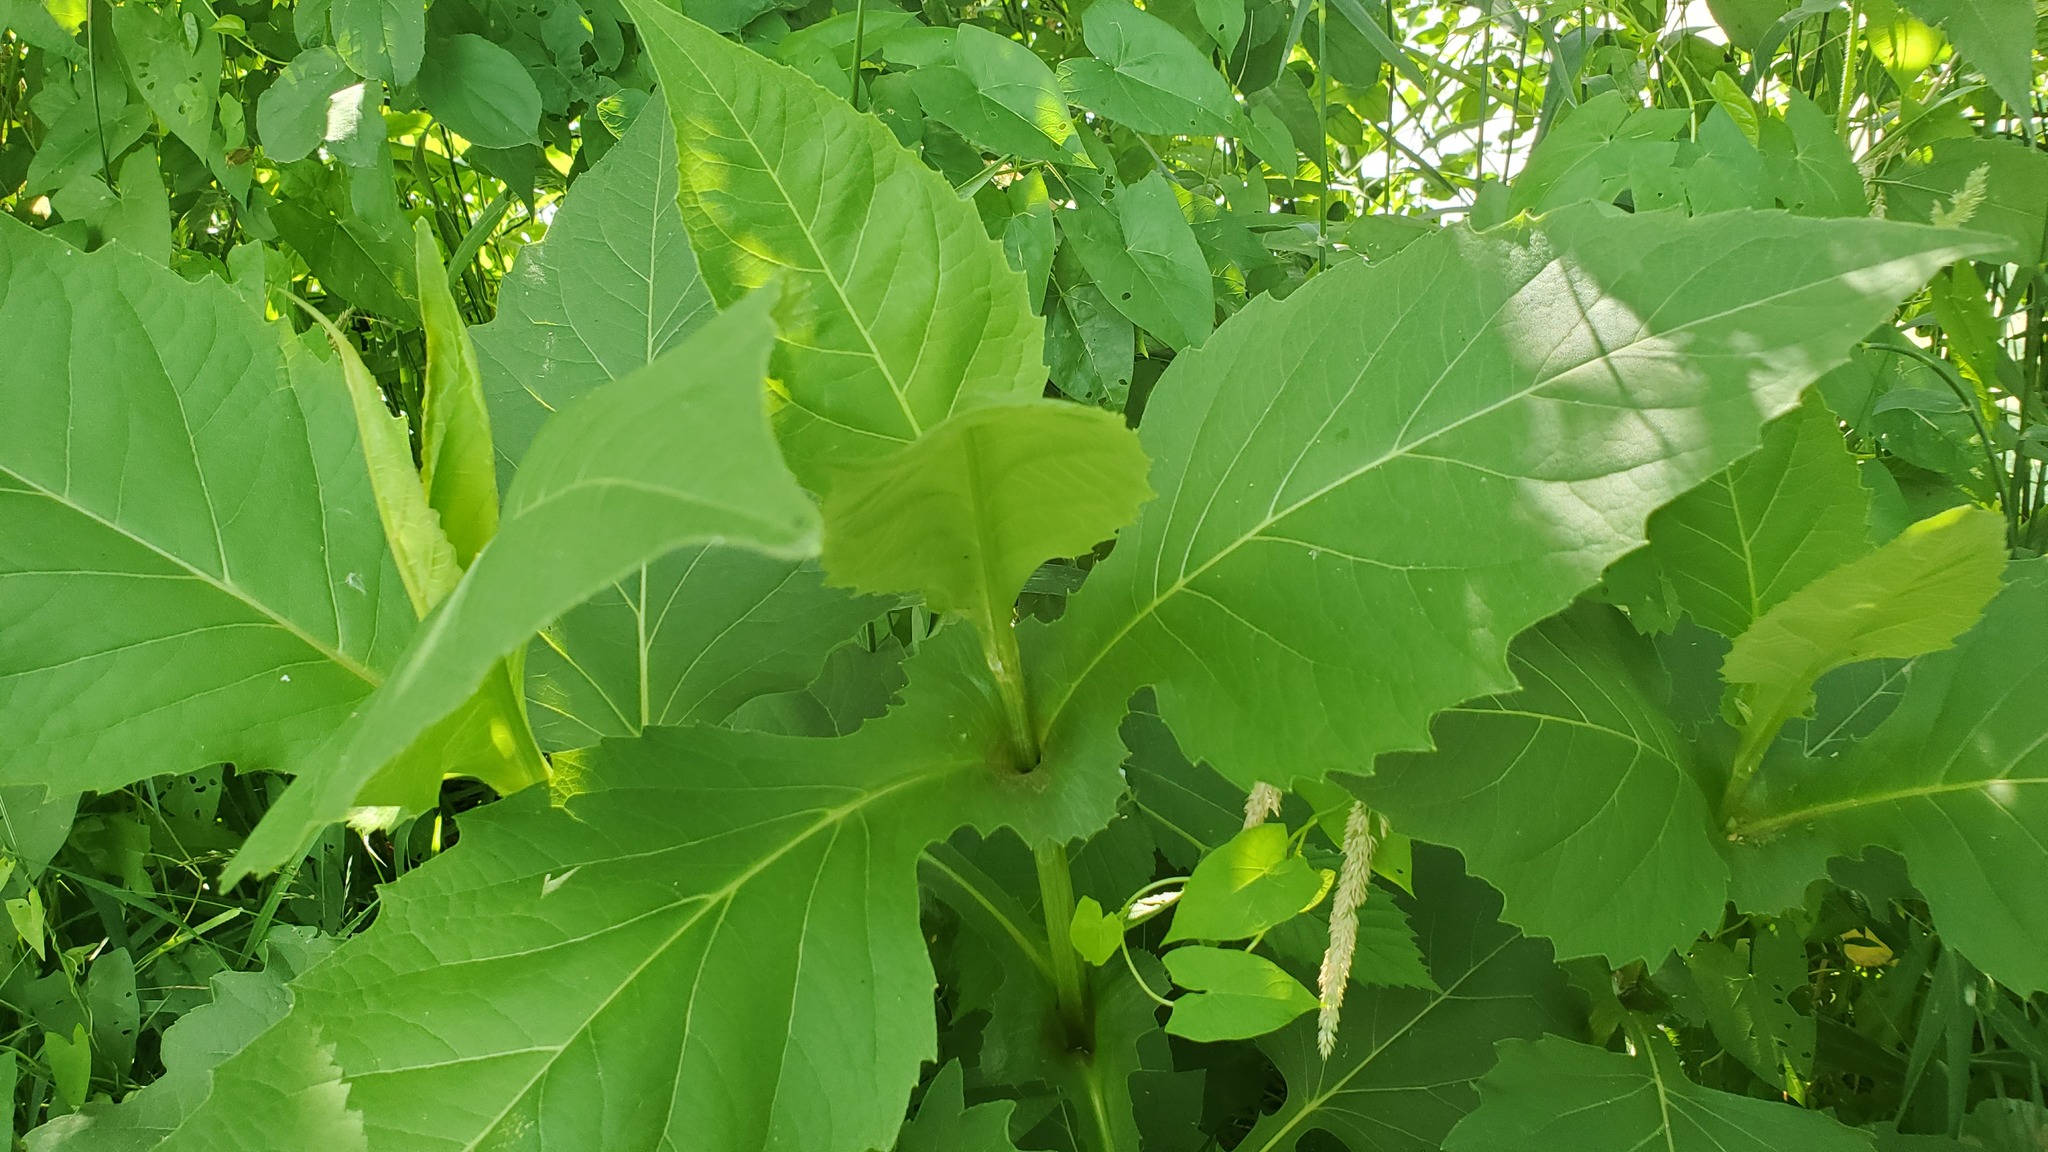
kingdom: Plantae
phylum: Tracheophyta
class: Magnoliopsida
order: Asterales
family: Asteraceae
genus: Silphium
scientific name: Silphium perfoliatum
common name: Cup-plant
